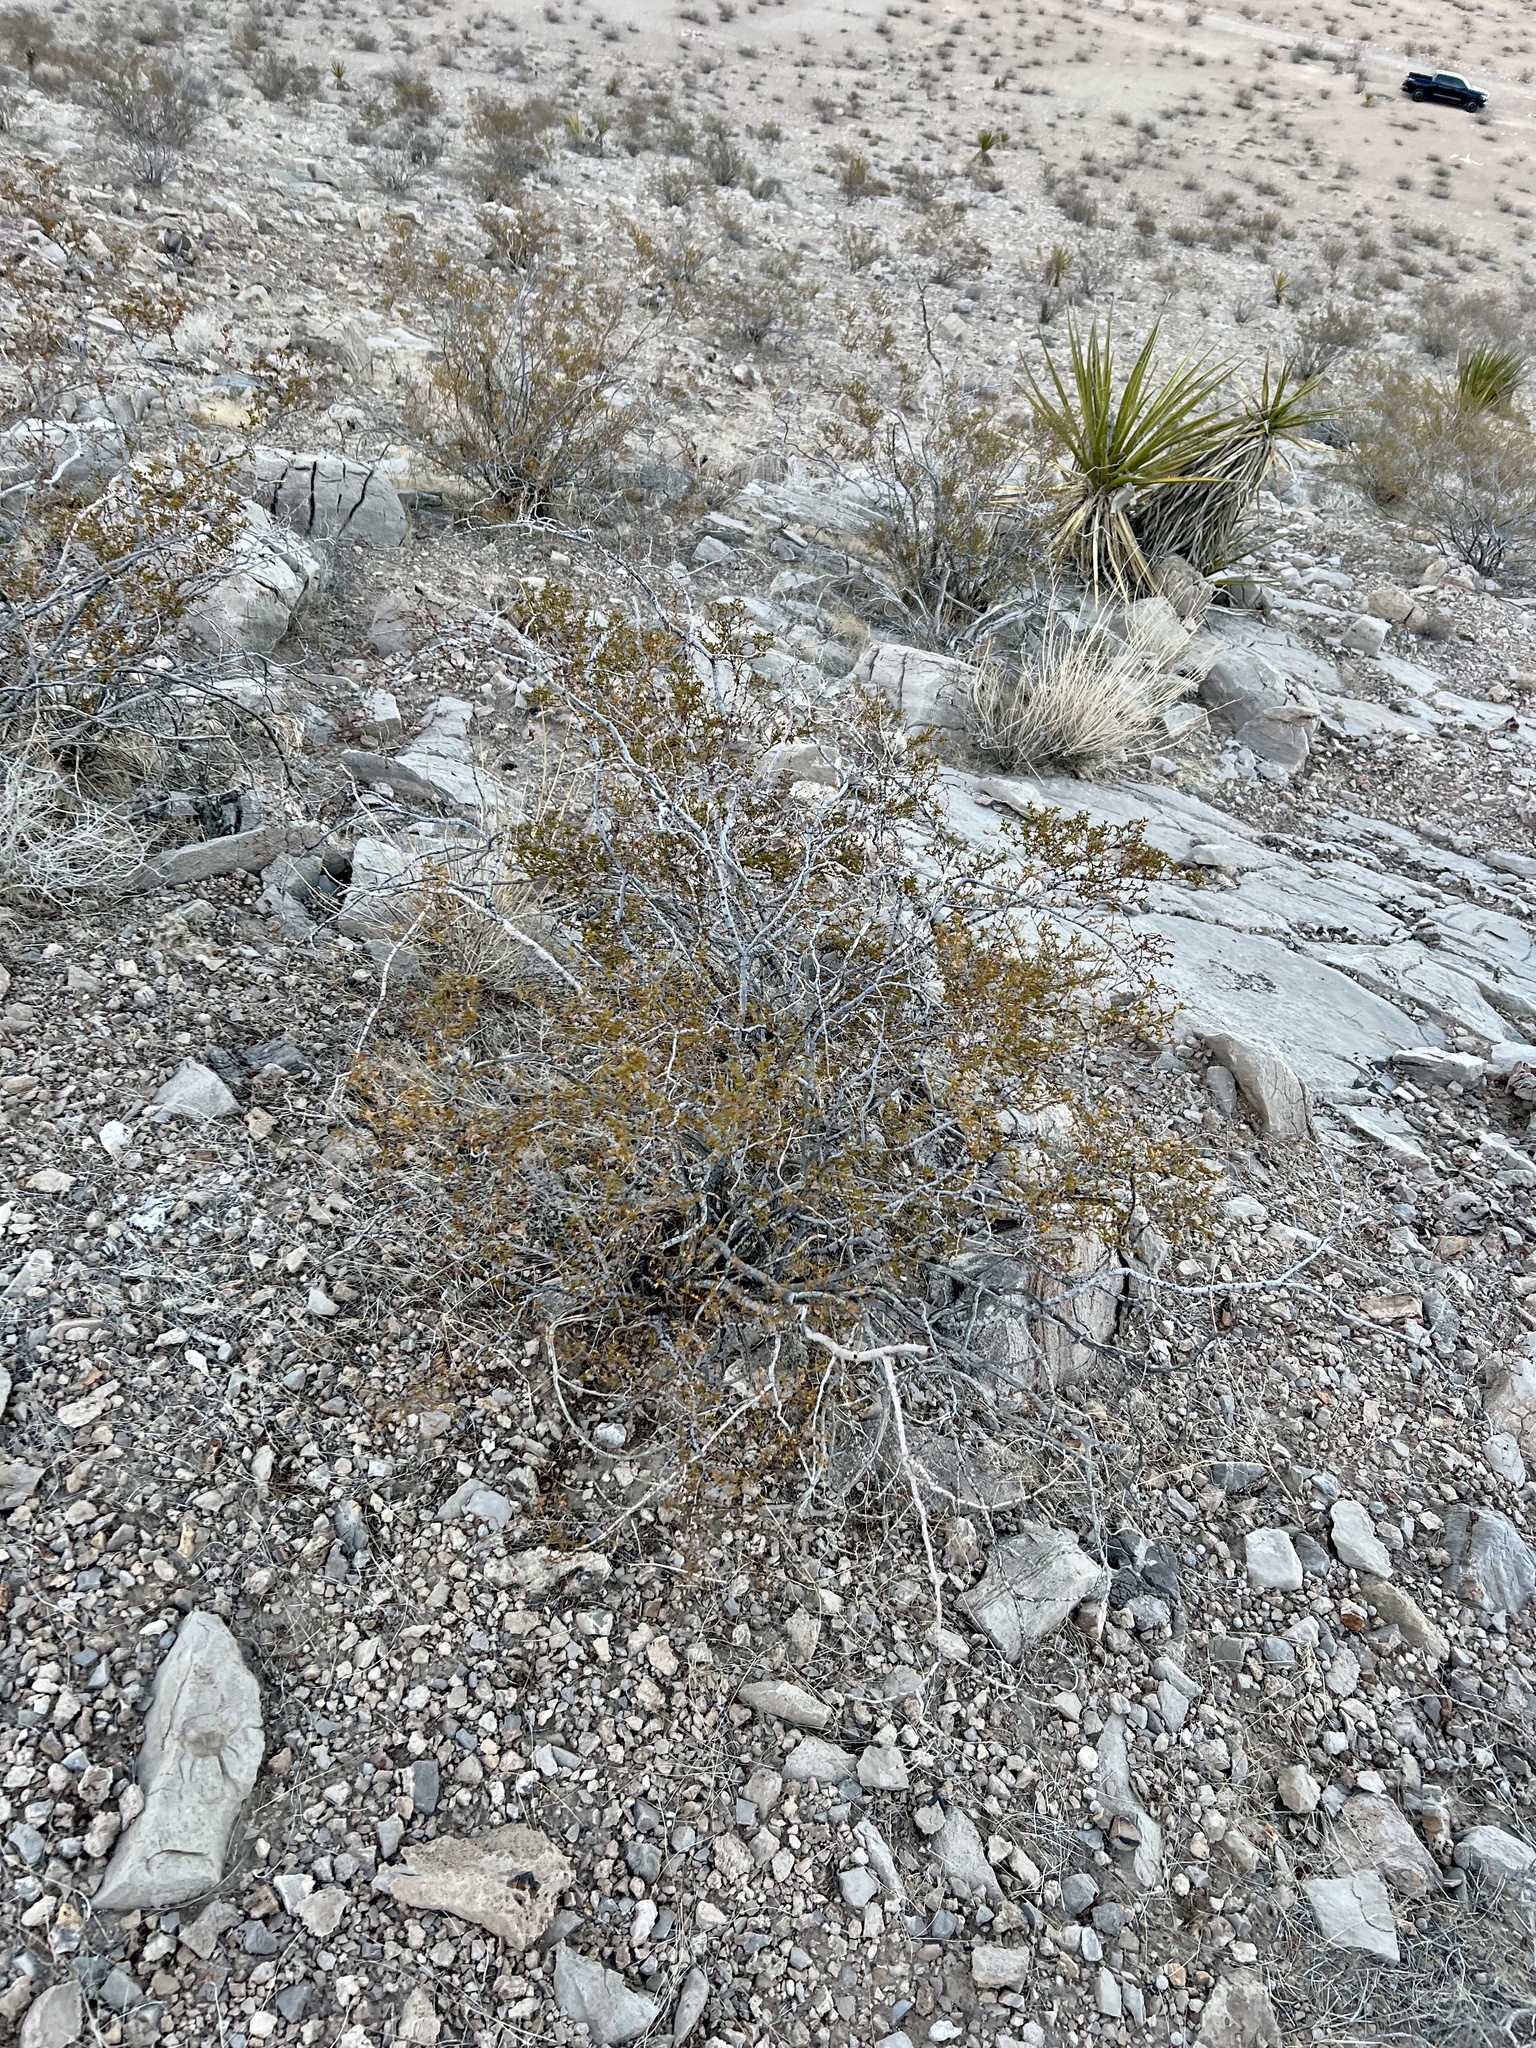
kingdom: Plantae
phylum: Tracheophyta
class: Magnoliopsida
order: Zygophyllales
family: Zygophyllaceae
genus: Larrea
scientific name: Larrea tridentata
